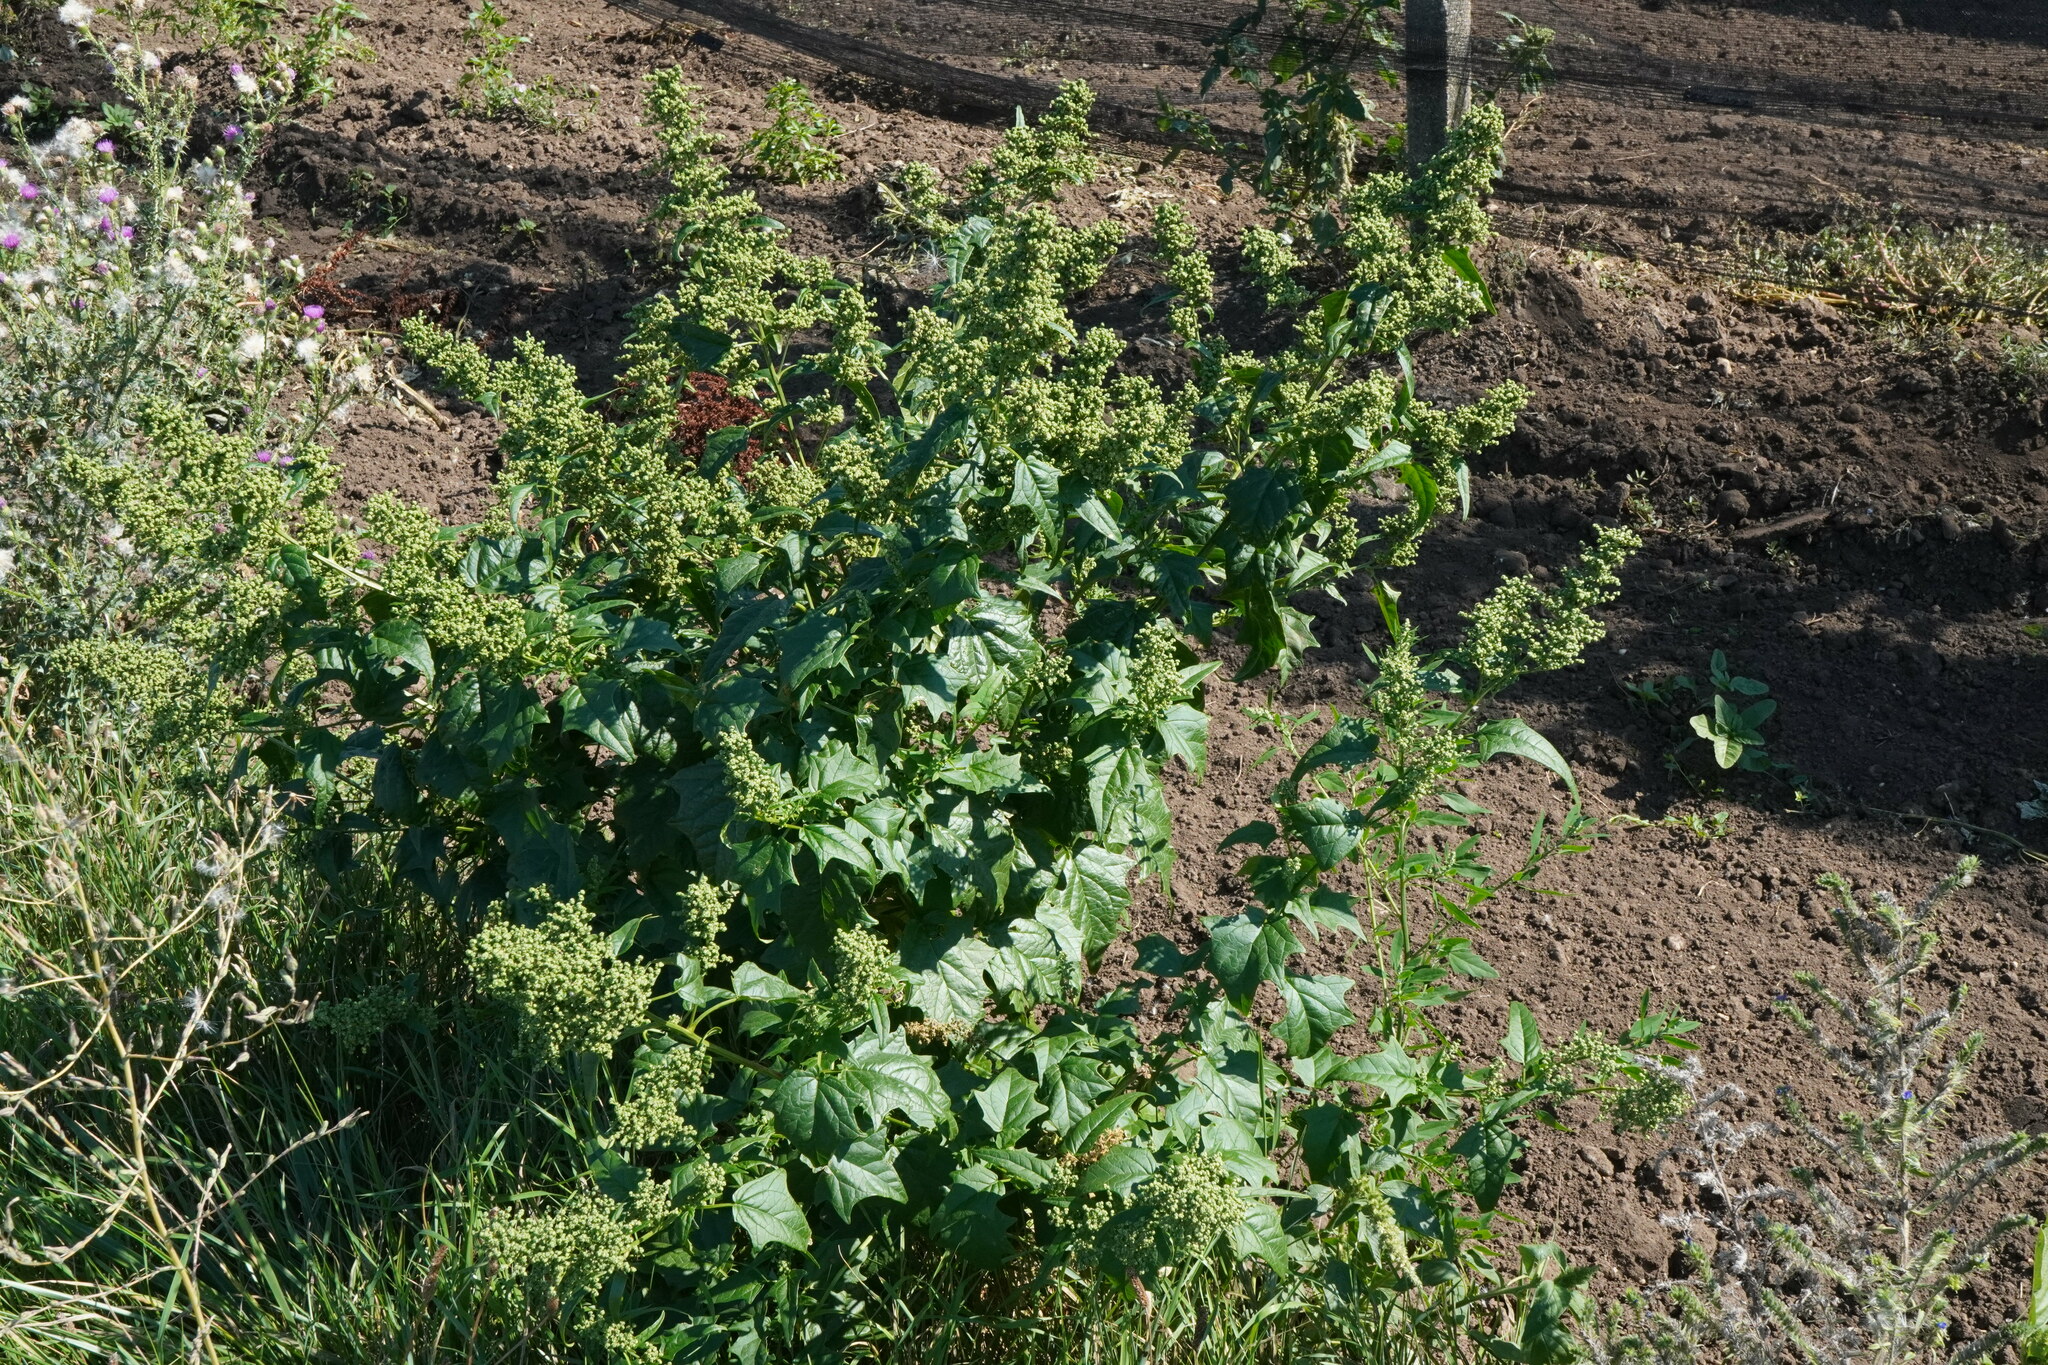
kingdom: Plantae
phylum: Tracheophyta
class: Magnoliopsida
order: Caryophyllales
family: Amaranthaceae
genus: Chenopodiastrum
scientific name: Chenopodiastrum hybridum
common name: Mapleleaf goosefoot
